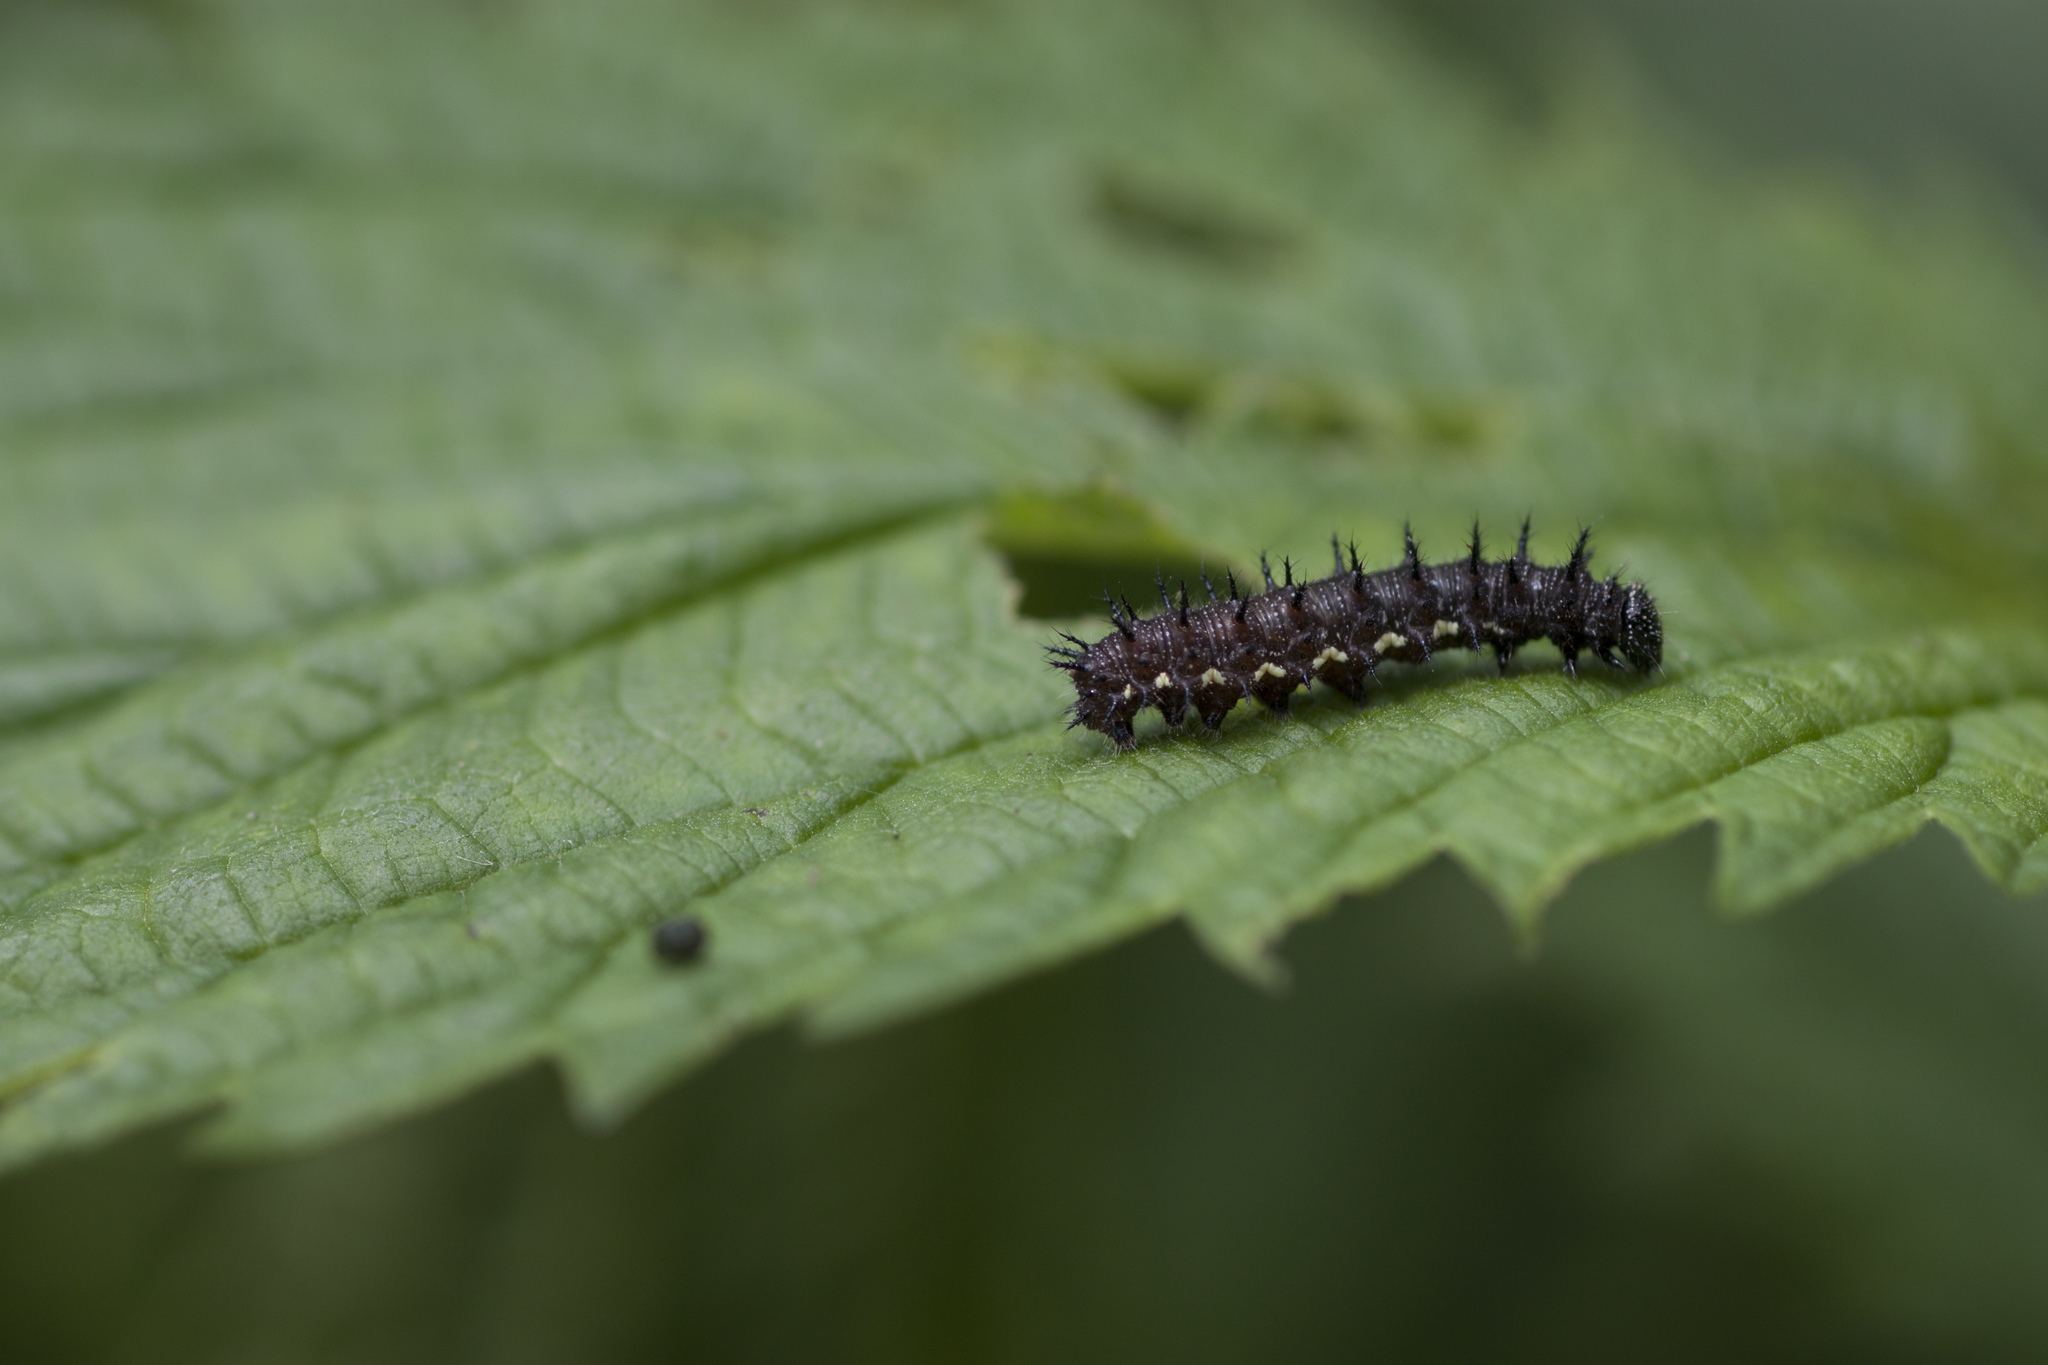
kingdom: Animalia
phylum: Arthropoda
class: Insecta
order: Lepidoptera
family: Nymphalidae
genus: Vanessa
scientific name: Vanessa atalanta
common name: Red admiral
